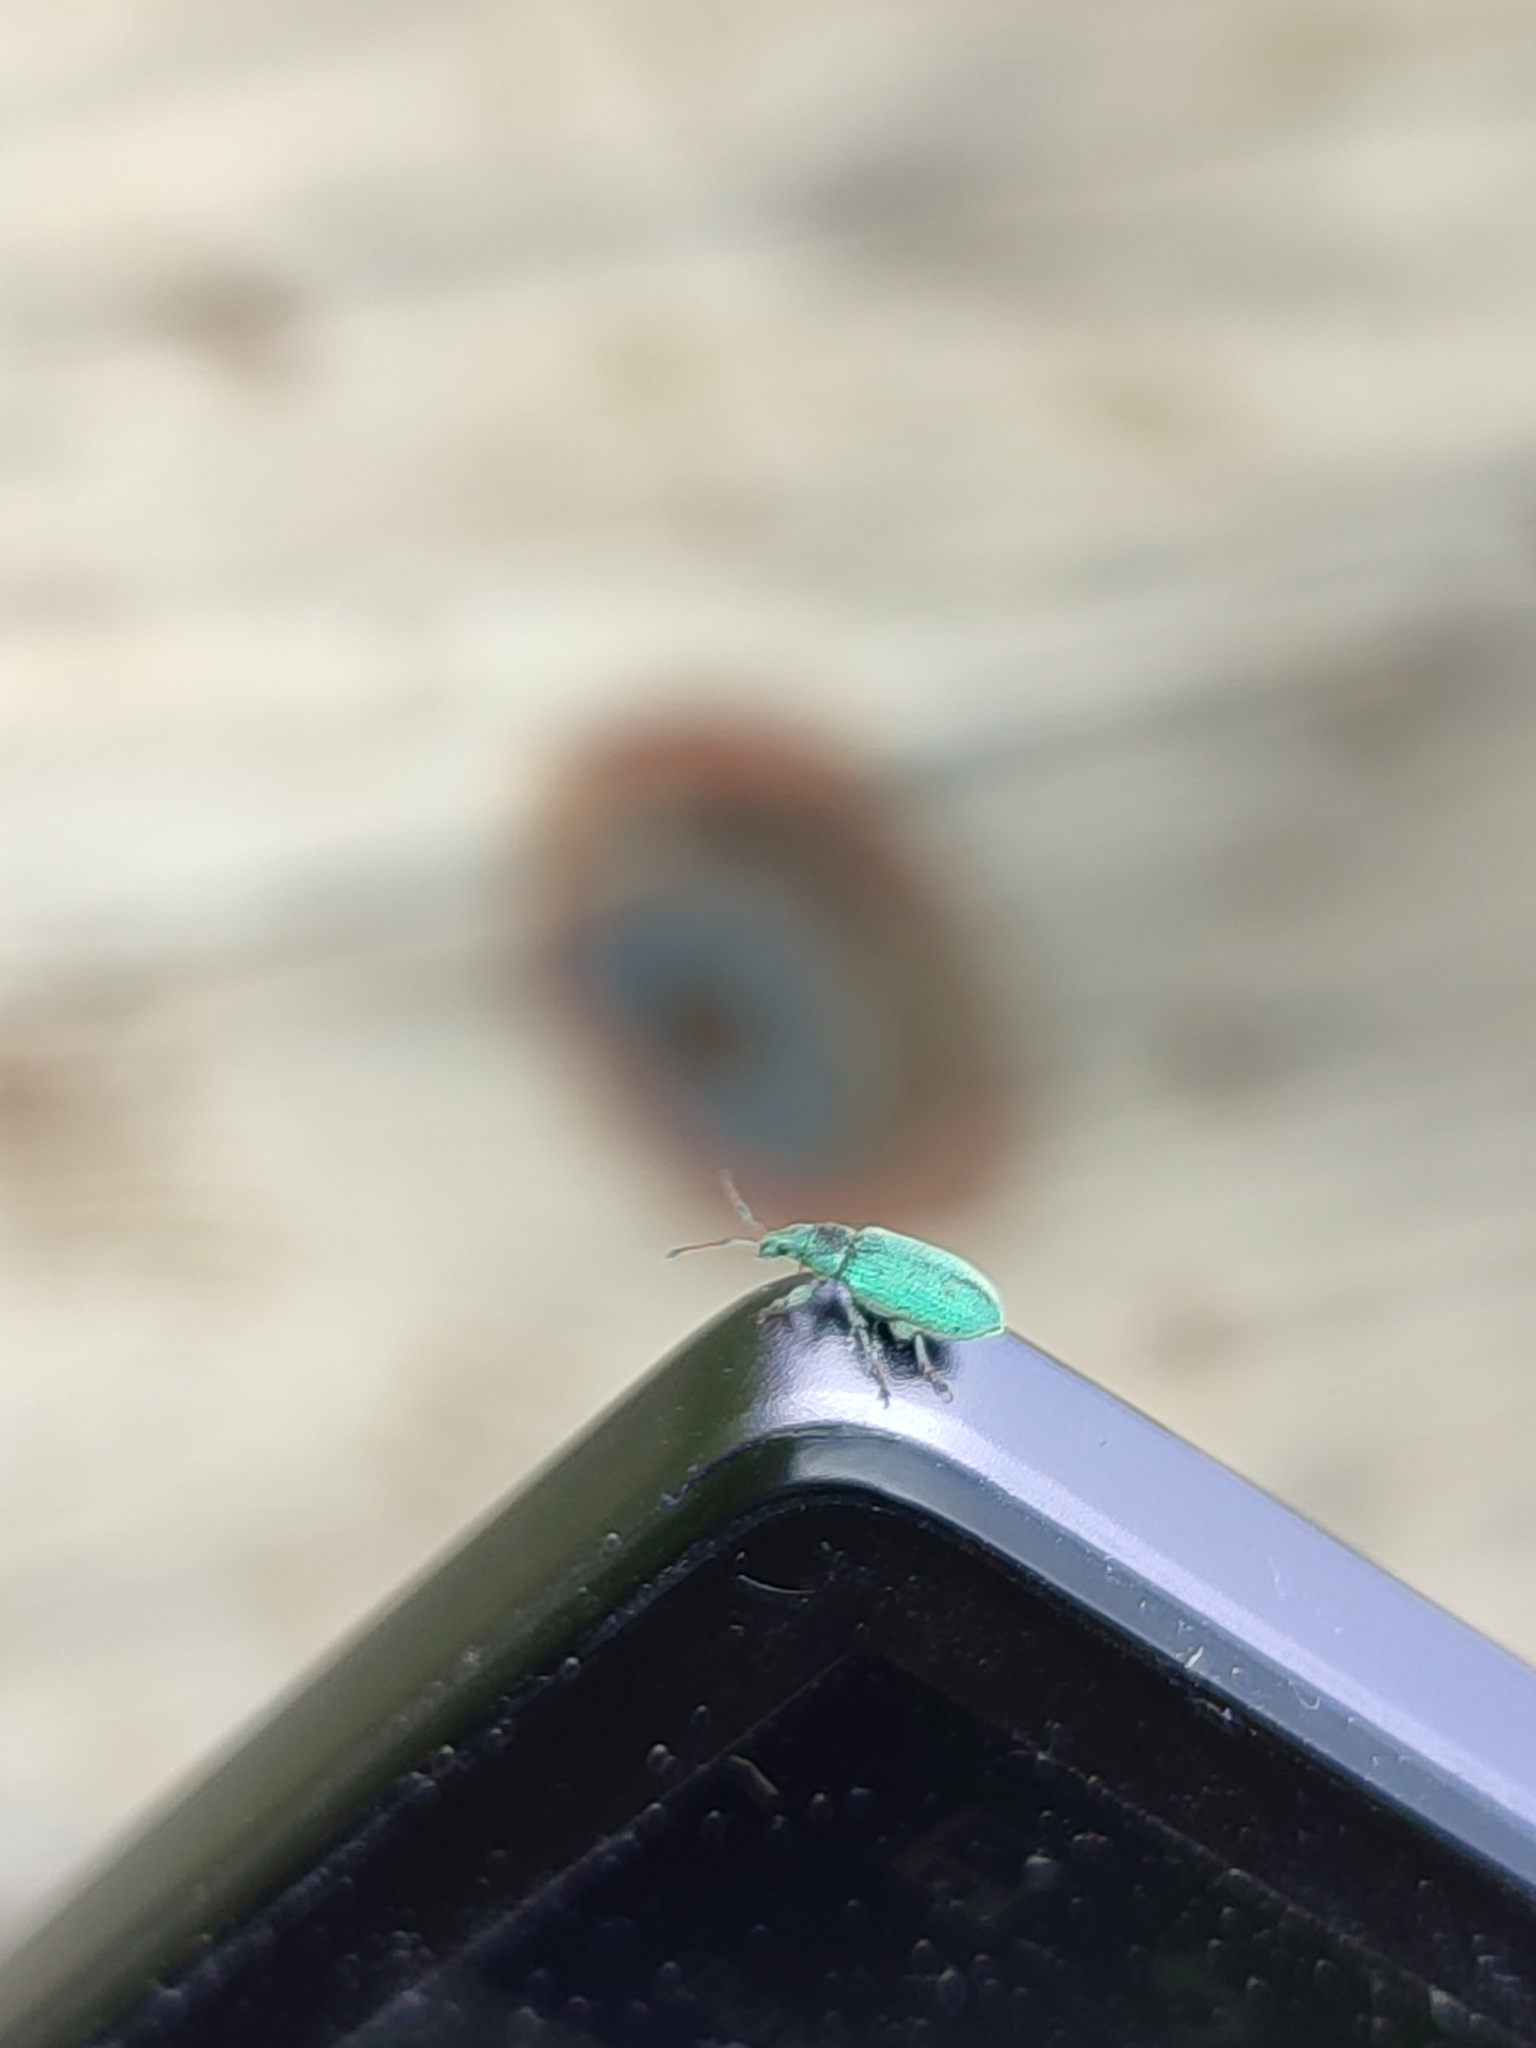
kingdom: Animalia
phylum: Arthropoda
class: Insecta
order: Coleoptera
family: Curculionidae
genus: Phyllobius
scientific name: Phyllobius maculicornis
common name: Green leaf weevil
